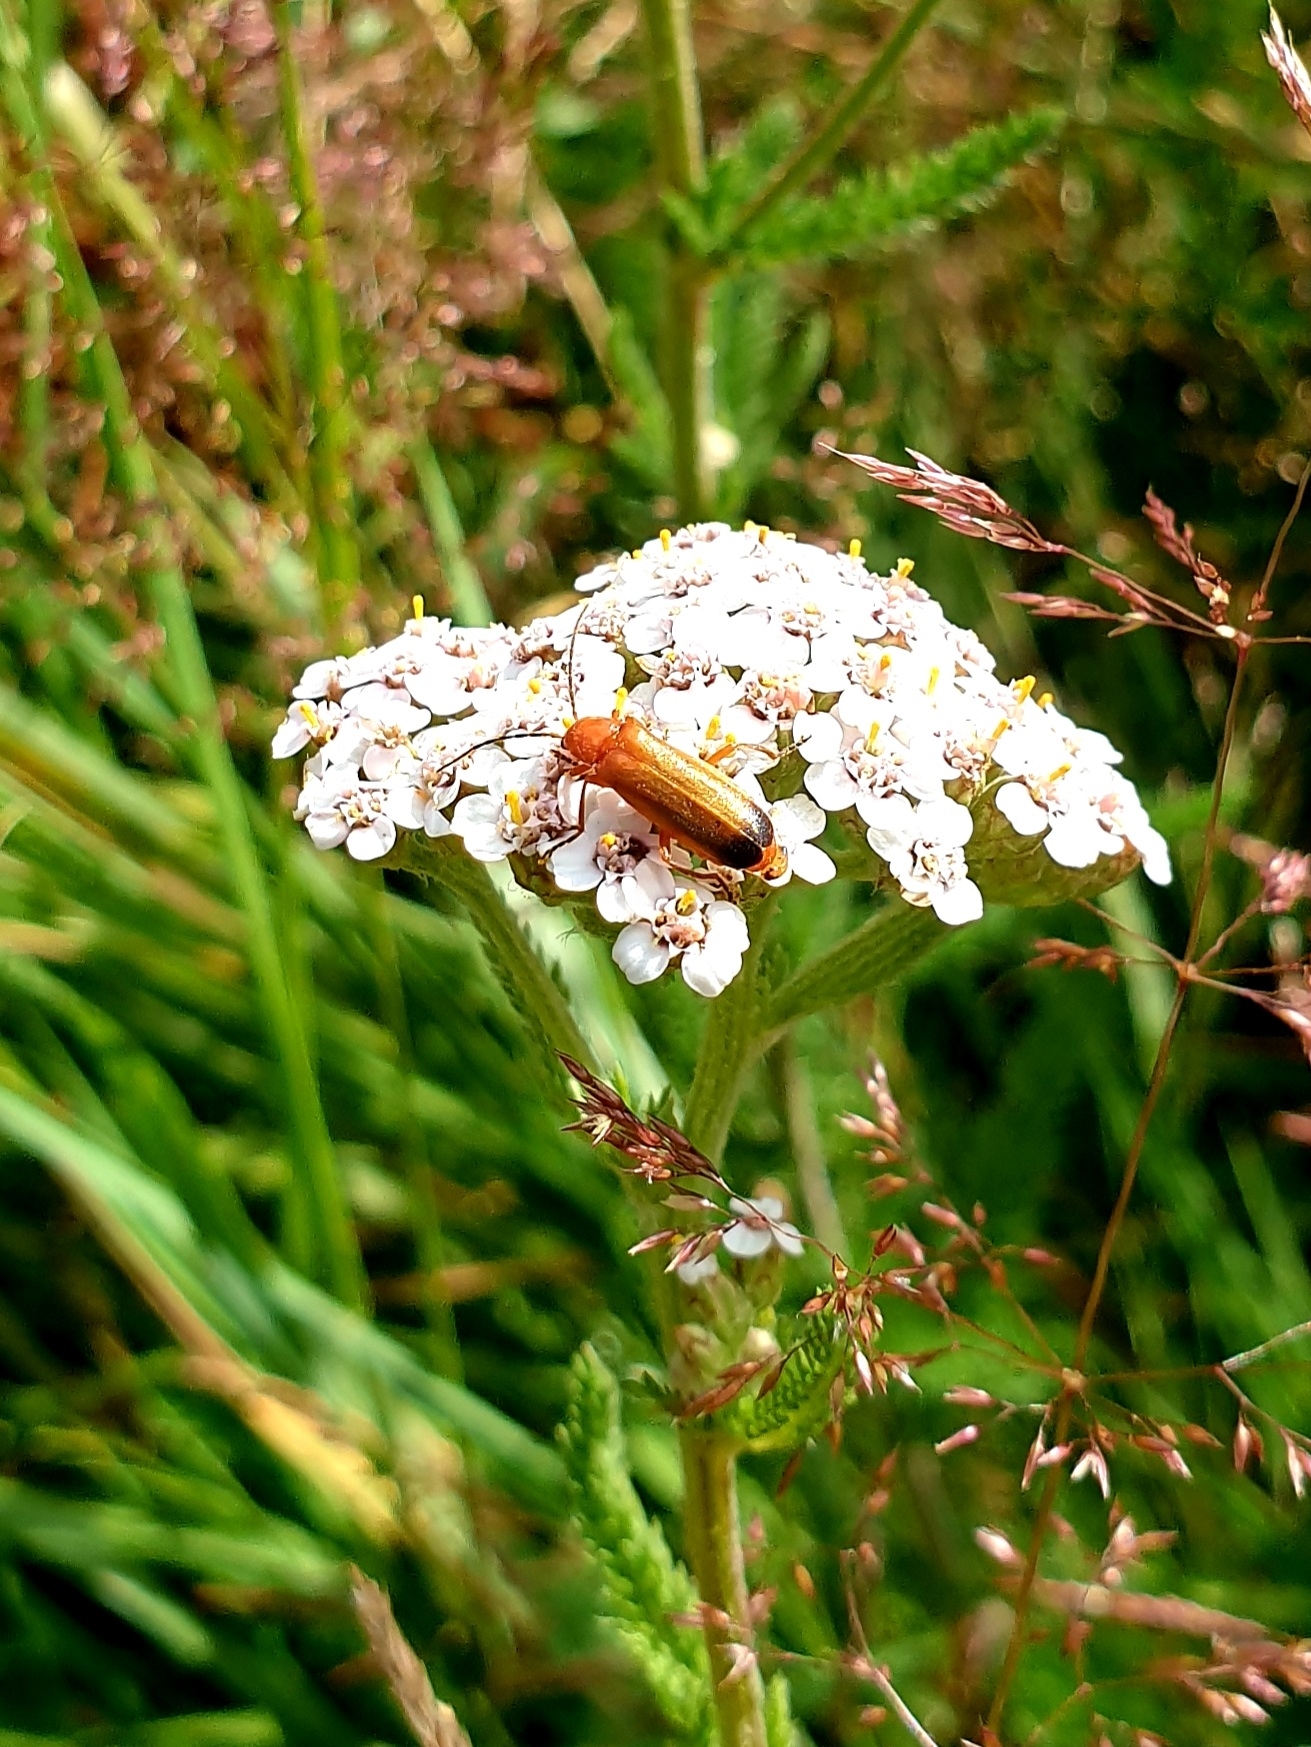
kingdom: Animalia
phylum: Arthropoda
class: Insecta
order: Coleoptera
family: Cantharidae
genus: Rhagonycha
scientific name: Rhagonycha fulva
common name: Common red soldier beetle
